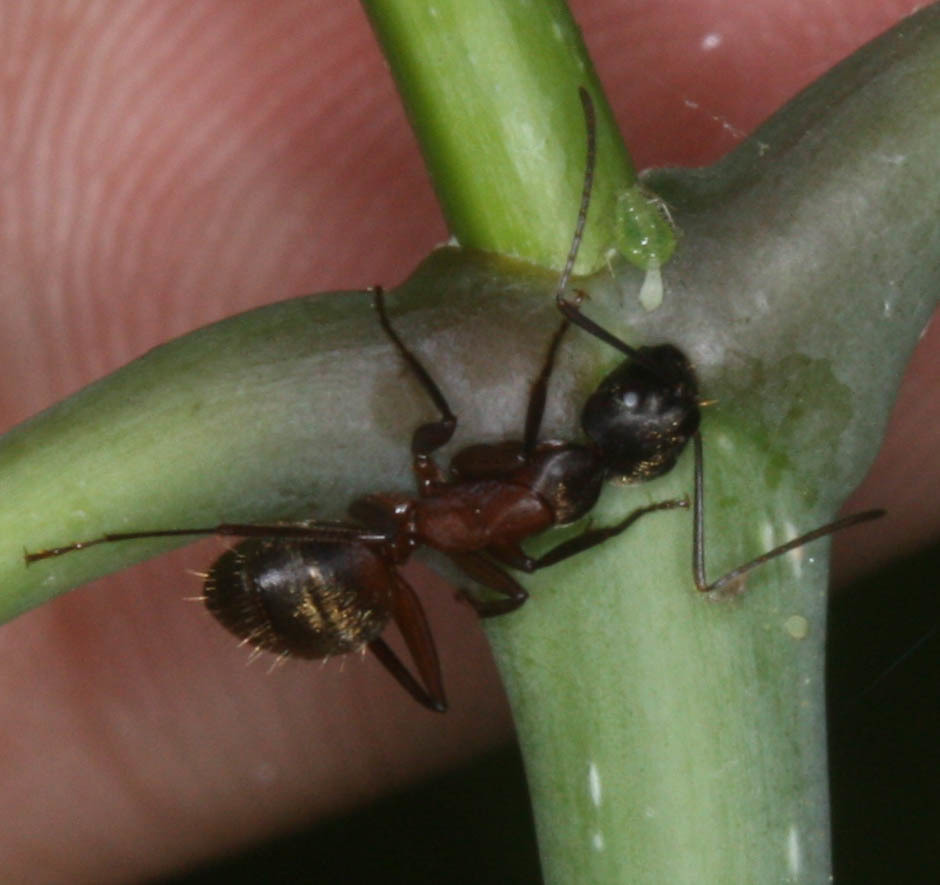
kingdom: Animalia
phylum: Arthropoda
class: Insecta
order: Hymenoptera
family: Formicidae
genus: Camponotus
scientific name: Camponotus chromaiodes
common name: Red carpenter ant
